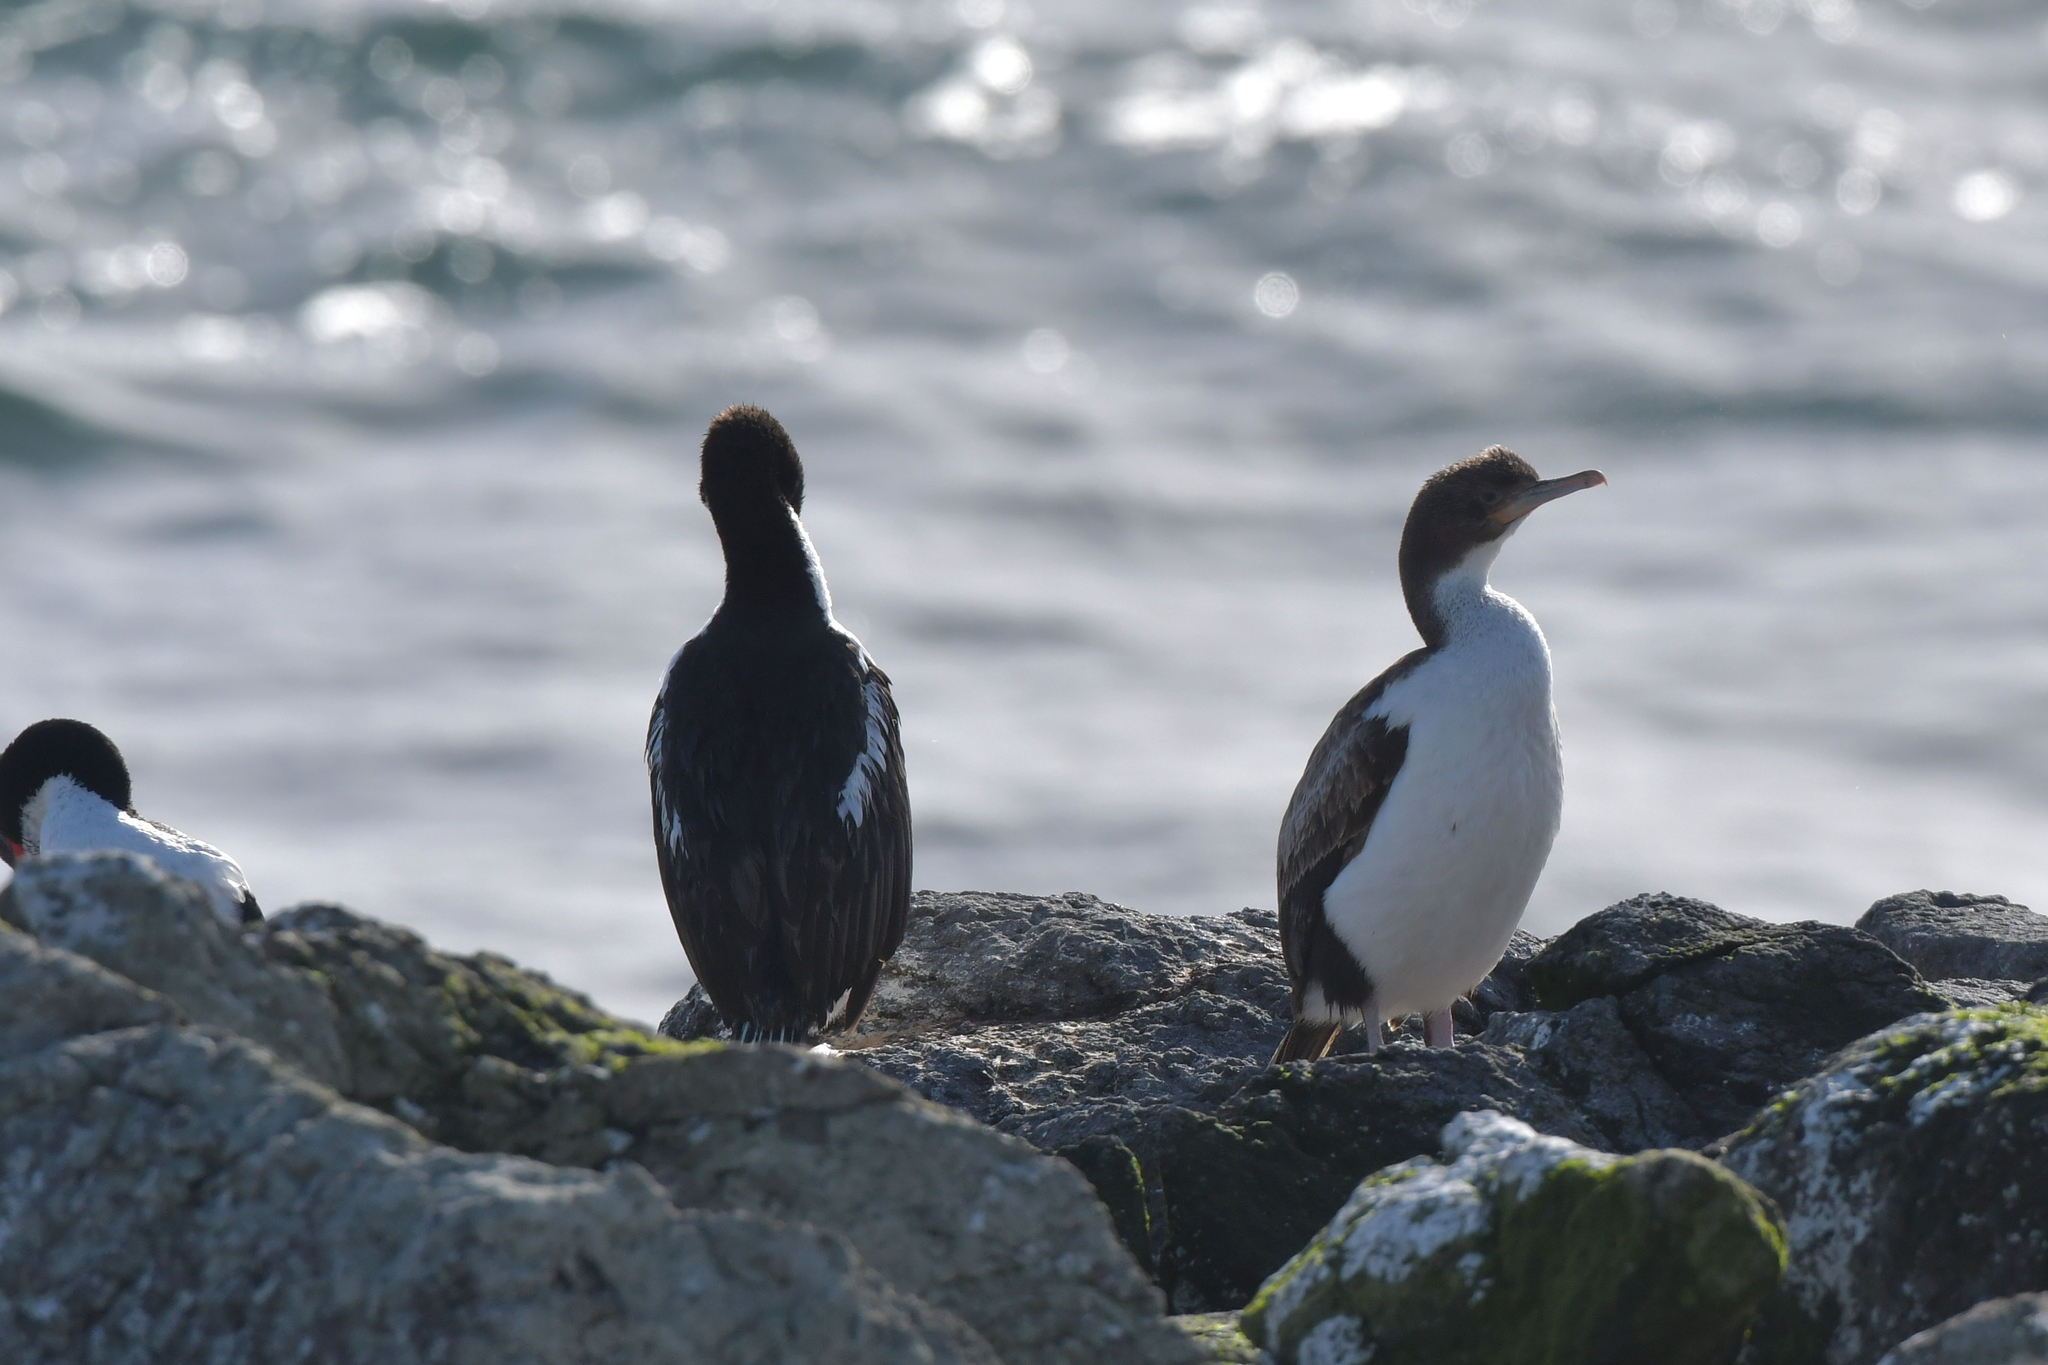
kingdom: Animalia
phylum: Chordata
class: Aves
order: Suliformes
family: Phalacrocoracidae
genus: Leucocarbo
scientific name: Leucocarbo onslowi
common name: Chatham shag
